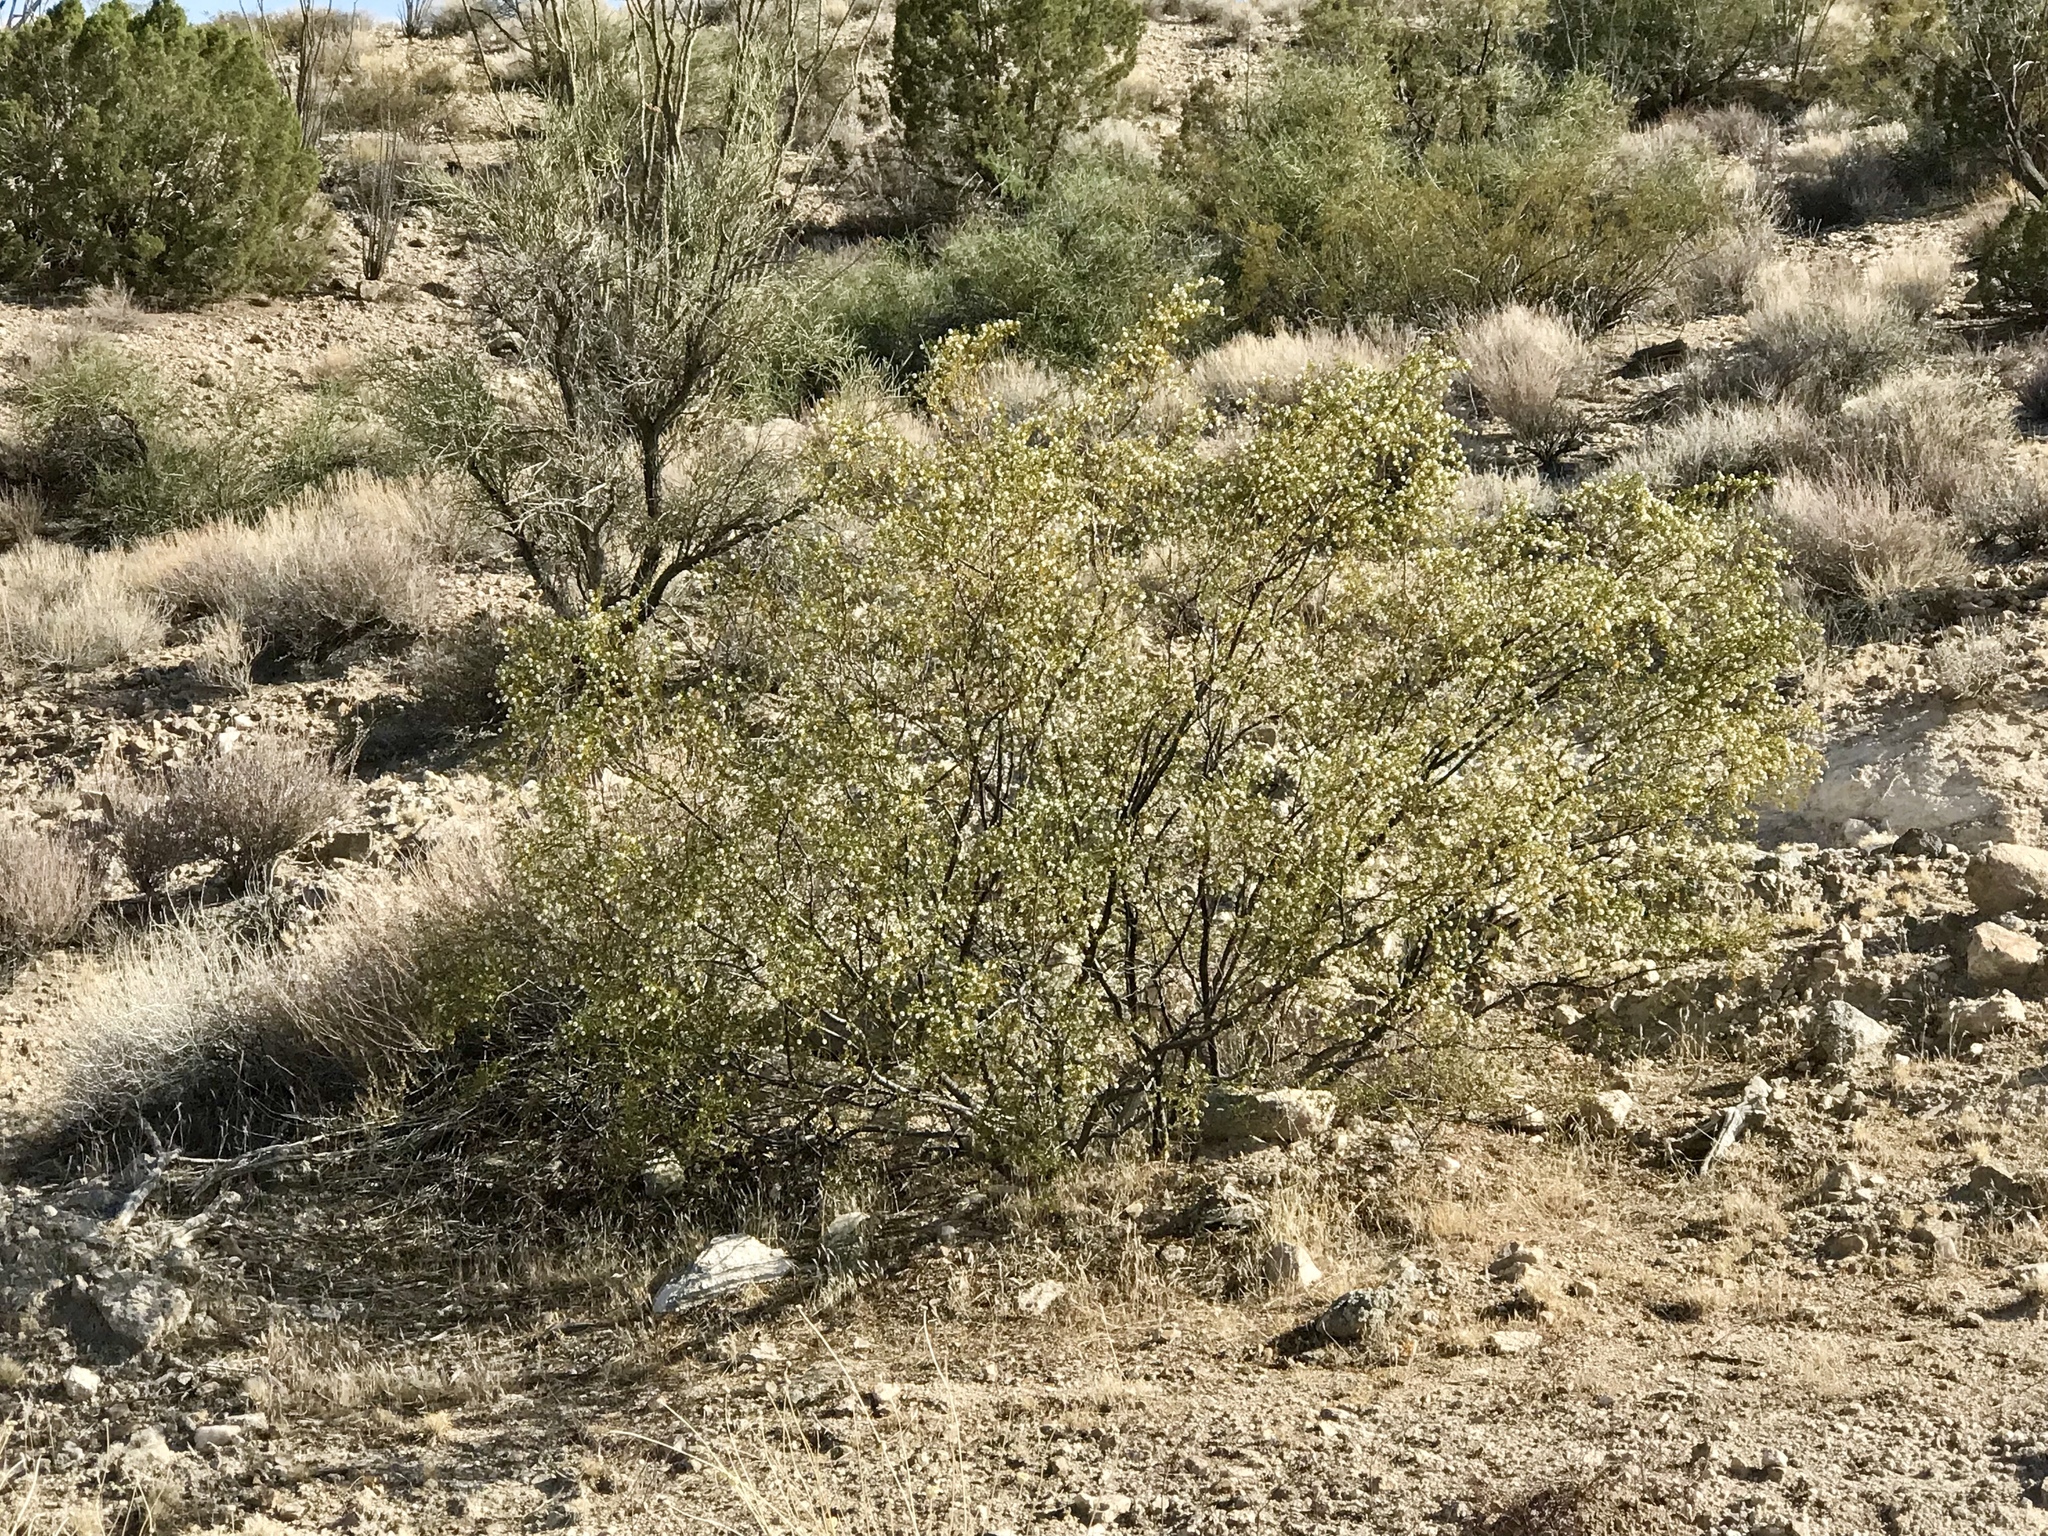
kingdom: Plantae
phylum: Tracheophyta
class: Magnoliopsida
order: Zygophyllales
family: Zygophyllaceae
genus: Larrea
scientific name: Larrea tridentata
